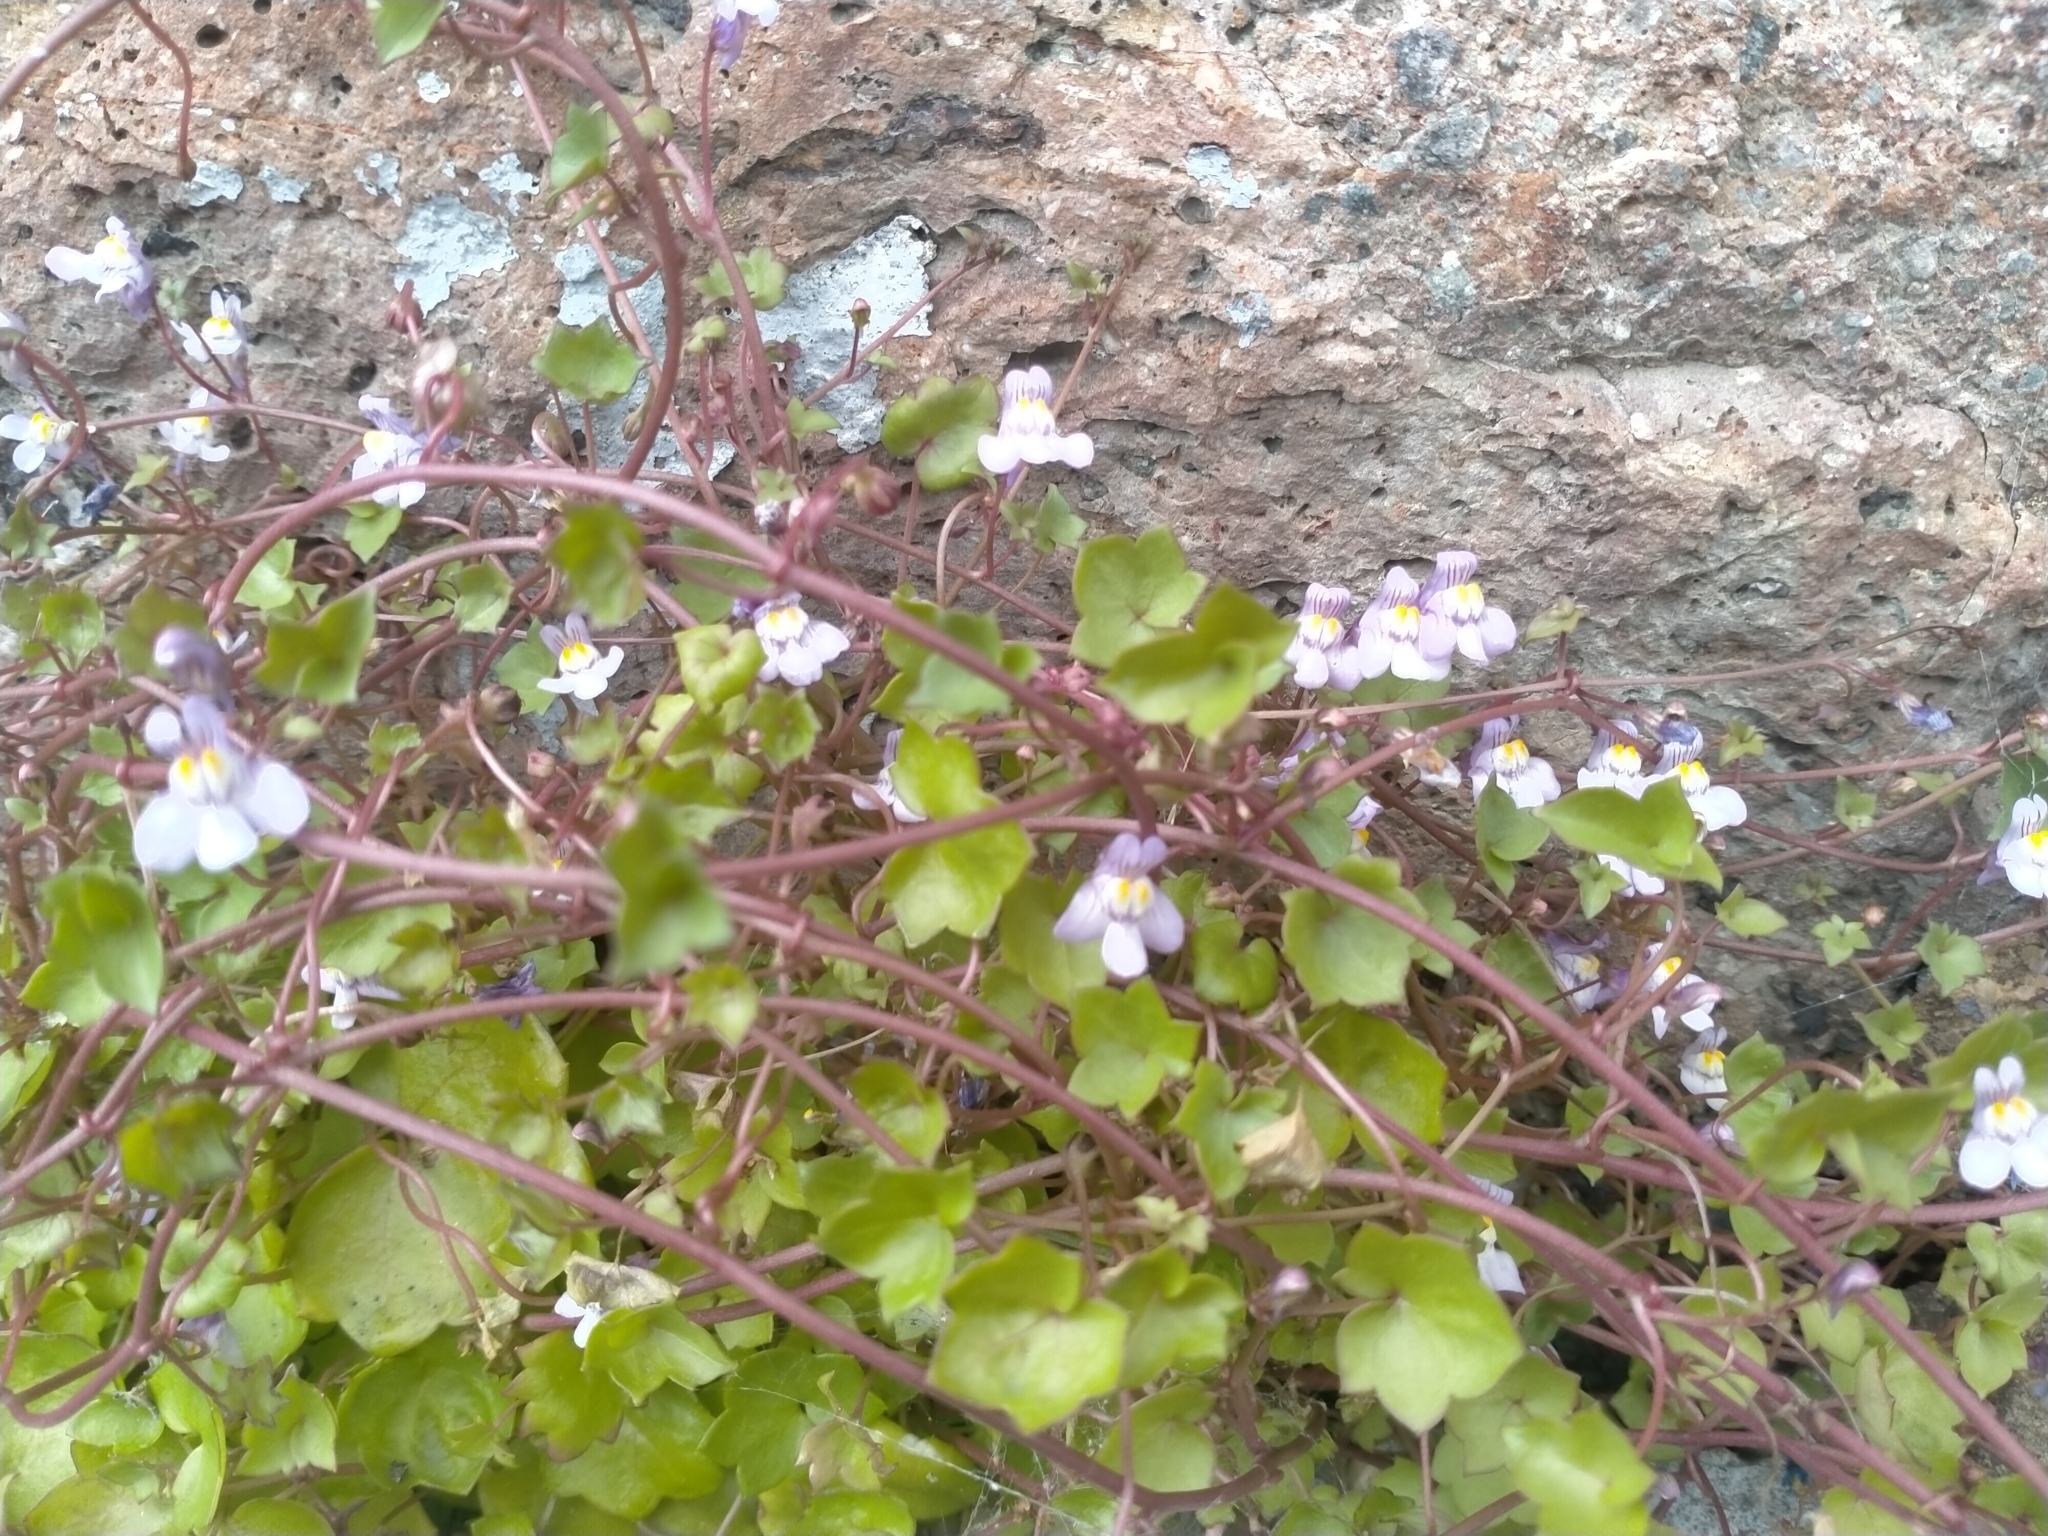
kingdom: Plantae
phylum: Tracheophyta
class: Magnoliopsida
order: Lamiales
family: Plantaginaceae
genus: Cymbalaria
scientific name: Cymbalaria muralis
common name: Ivy-leaved toadflax
